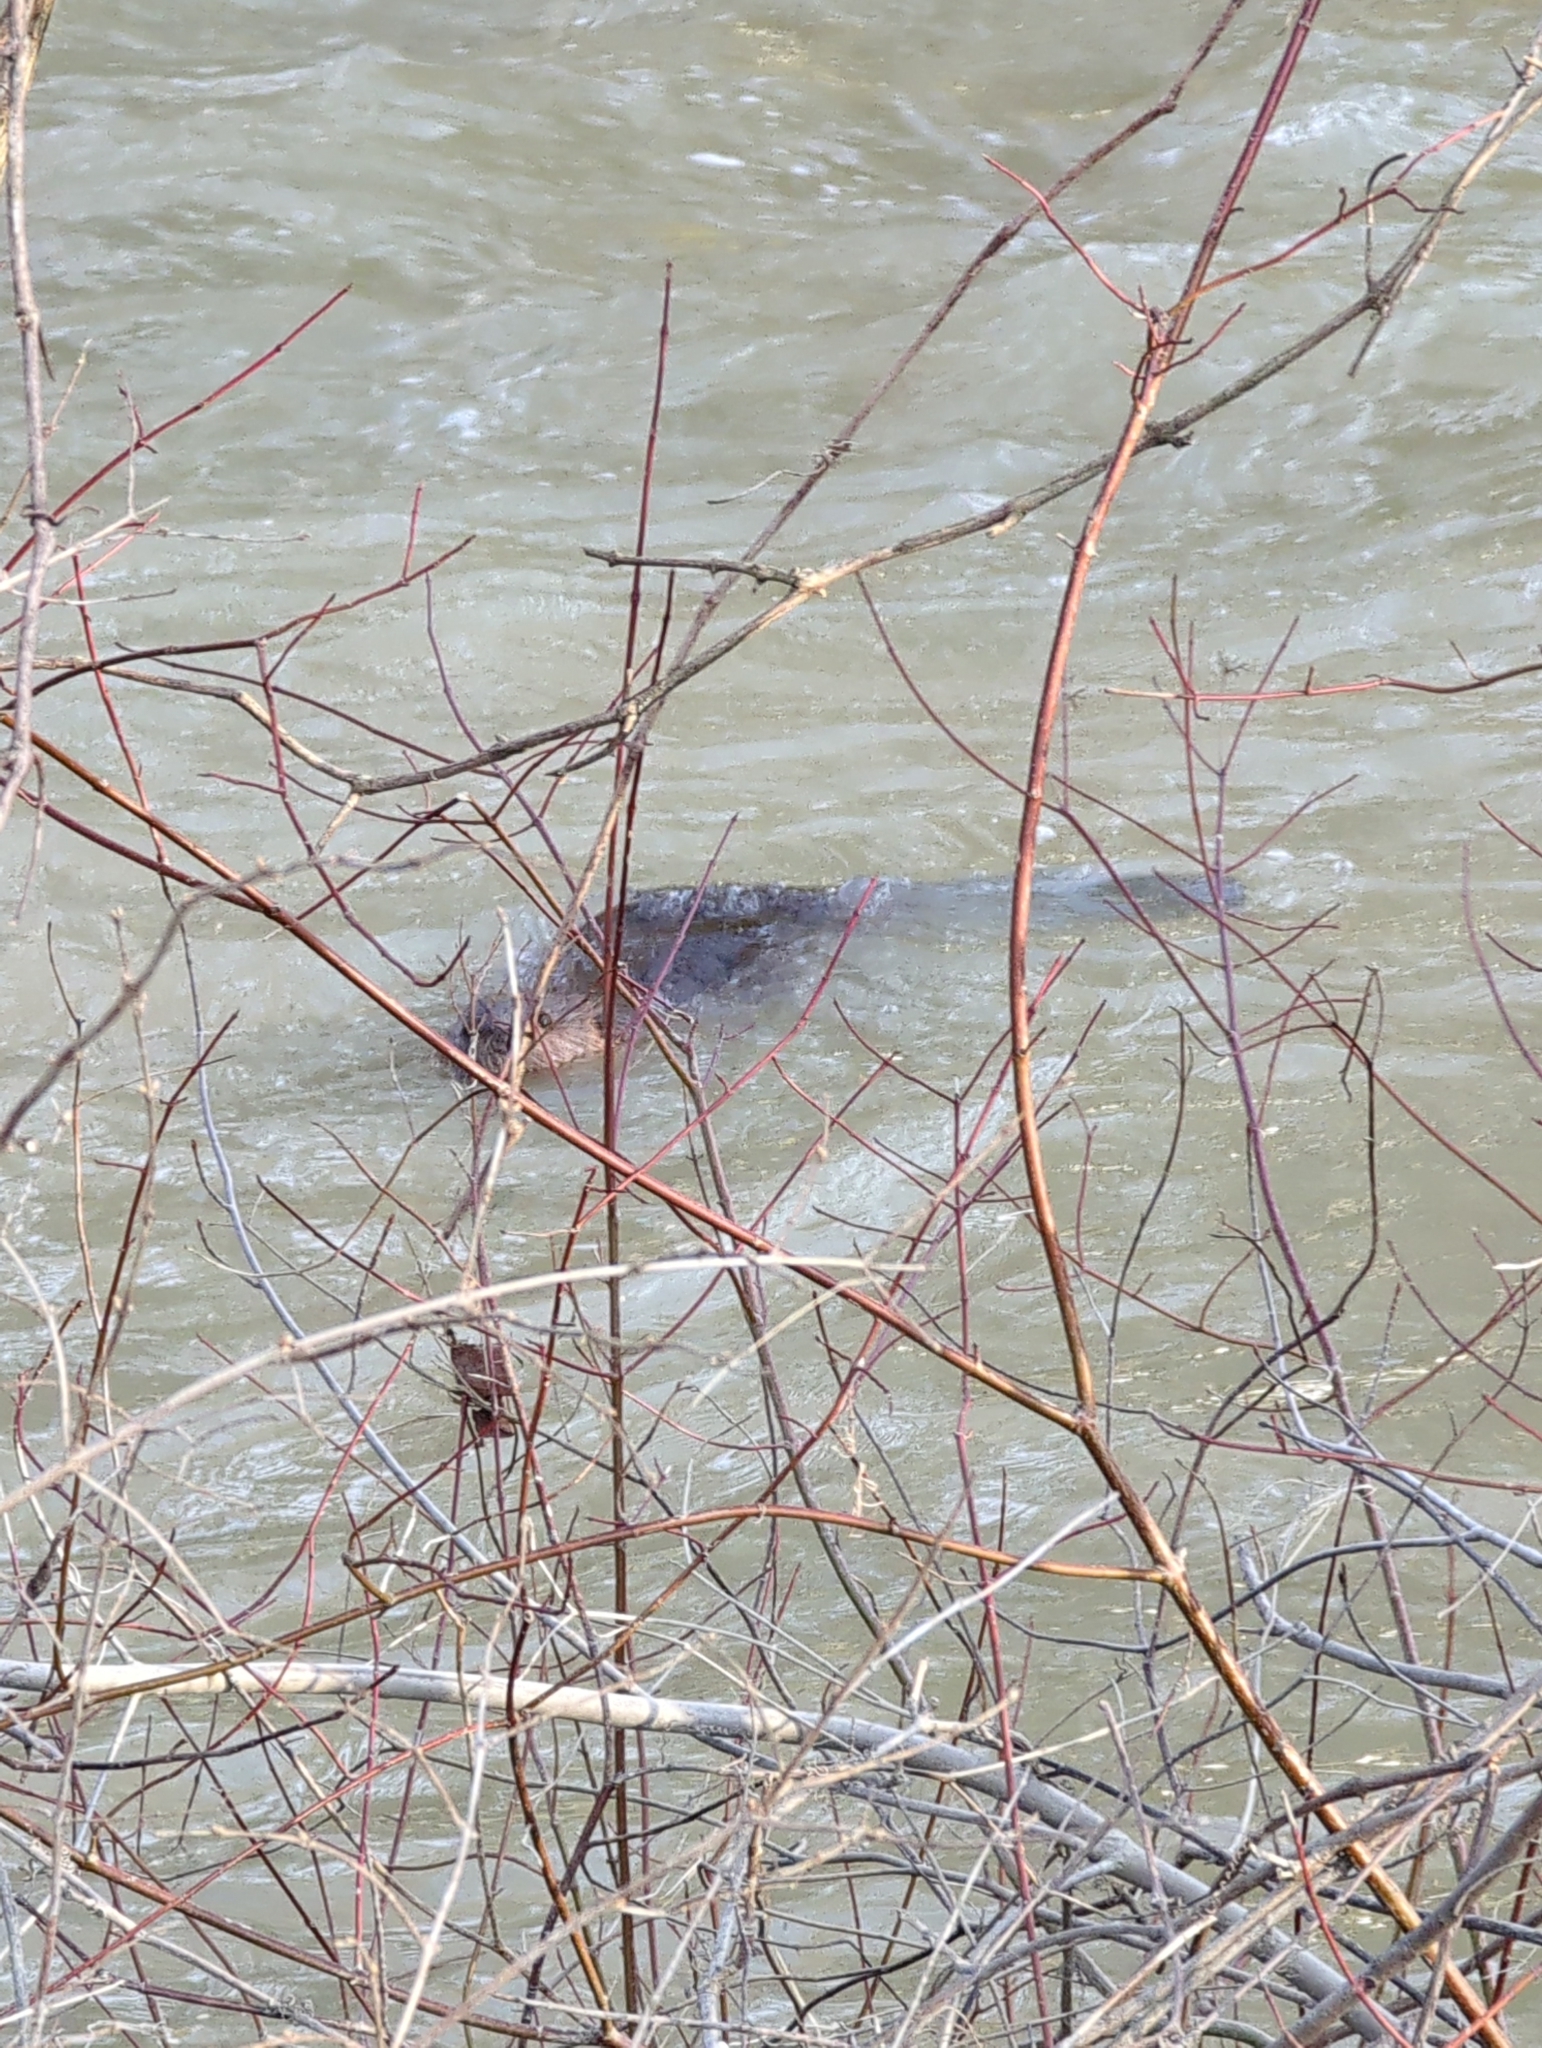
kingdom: Animalia
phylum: Chordata
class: Mammalia
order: Rodentia
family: Castoridae
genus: Castor
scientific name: Castor canadensis
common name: American beaver
